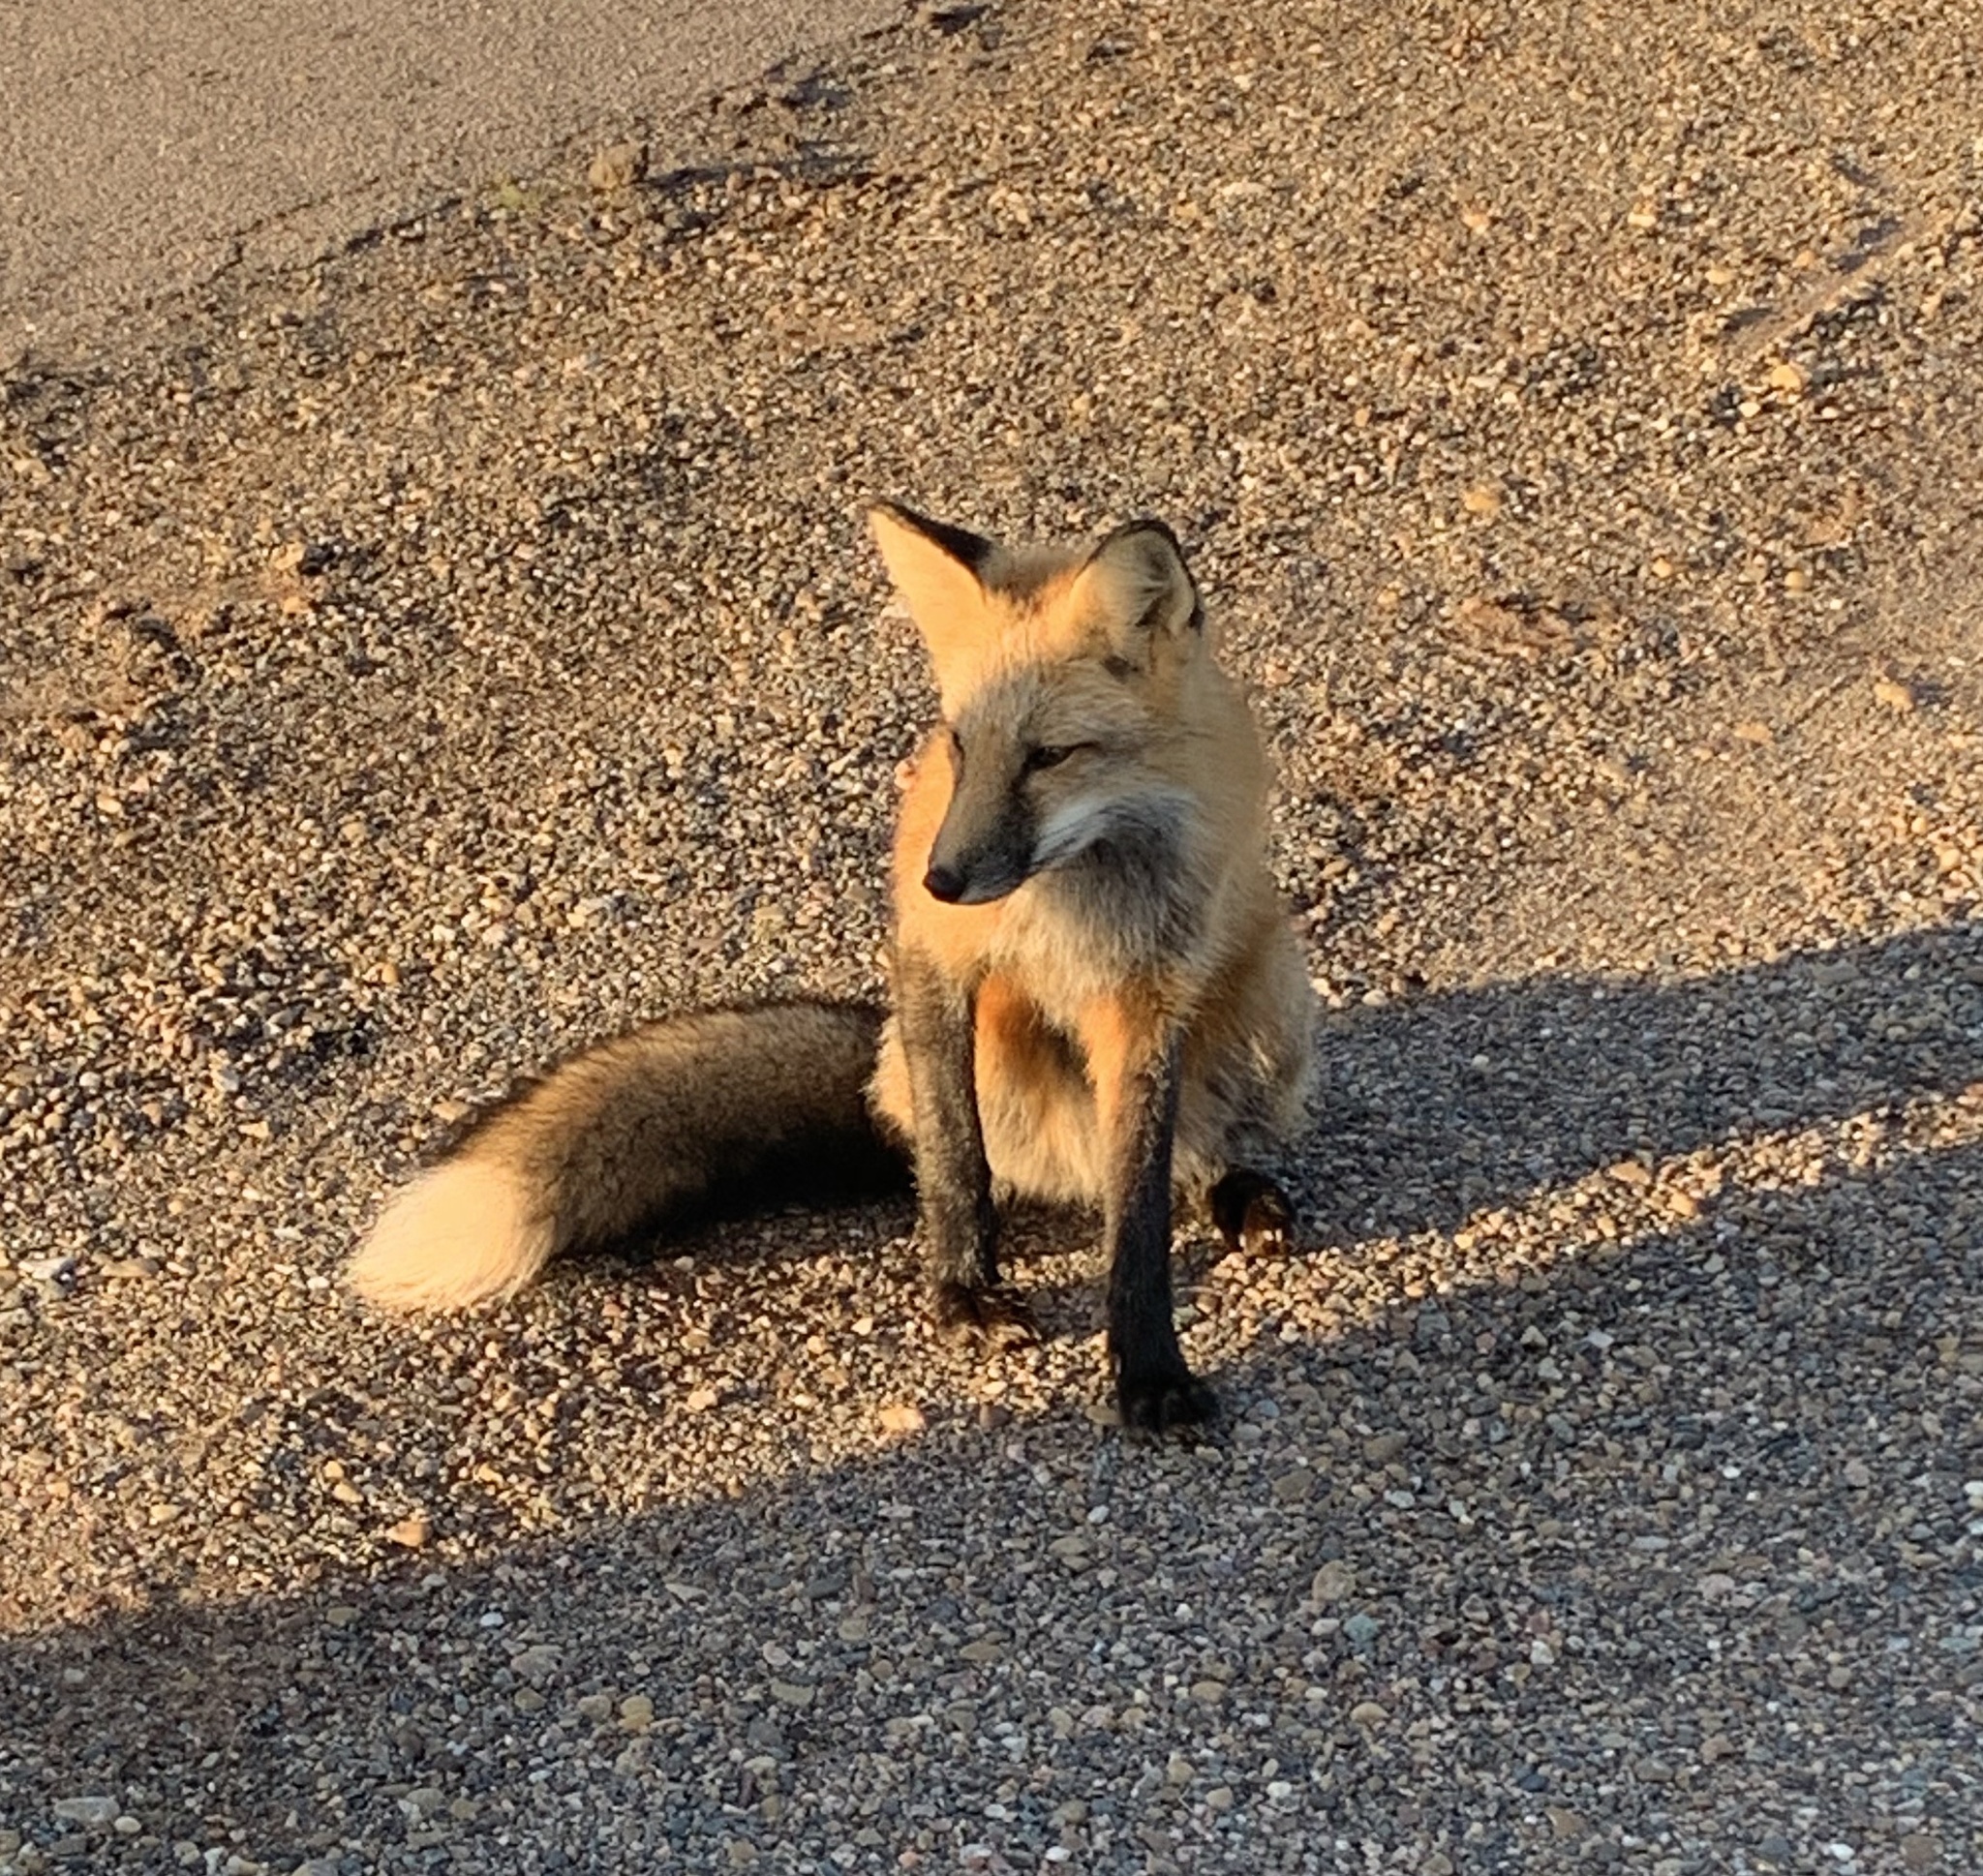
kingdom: Animalia
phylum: Chordata
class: Mammalia
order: Carnivora
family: Canidae
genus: Vulpes
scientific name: Vulpes vulpes
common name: Red fox
